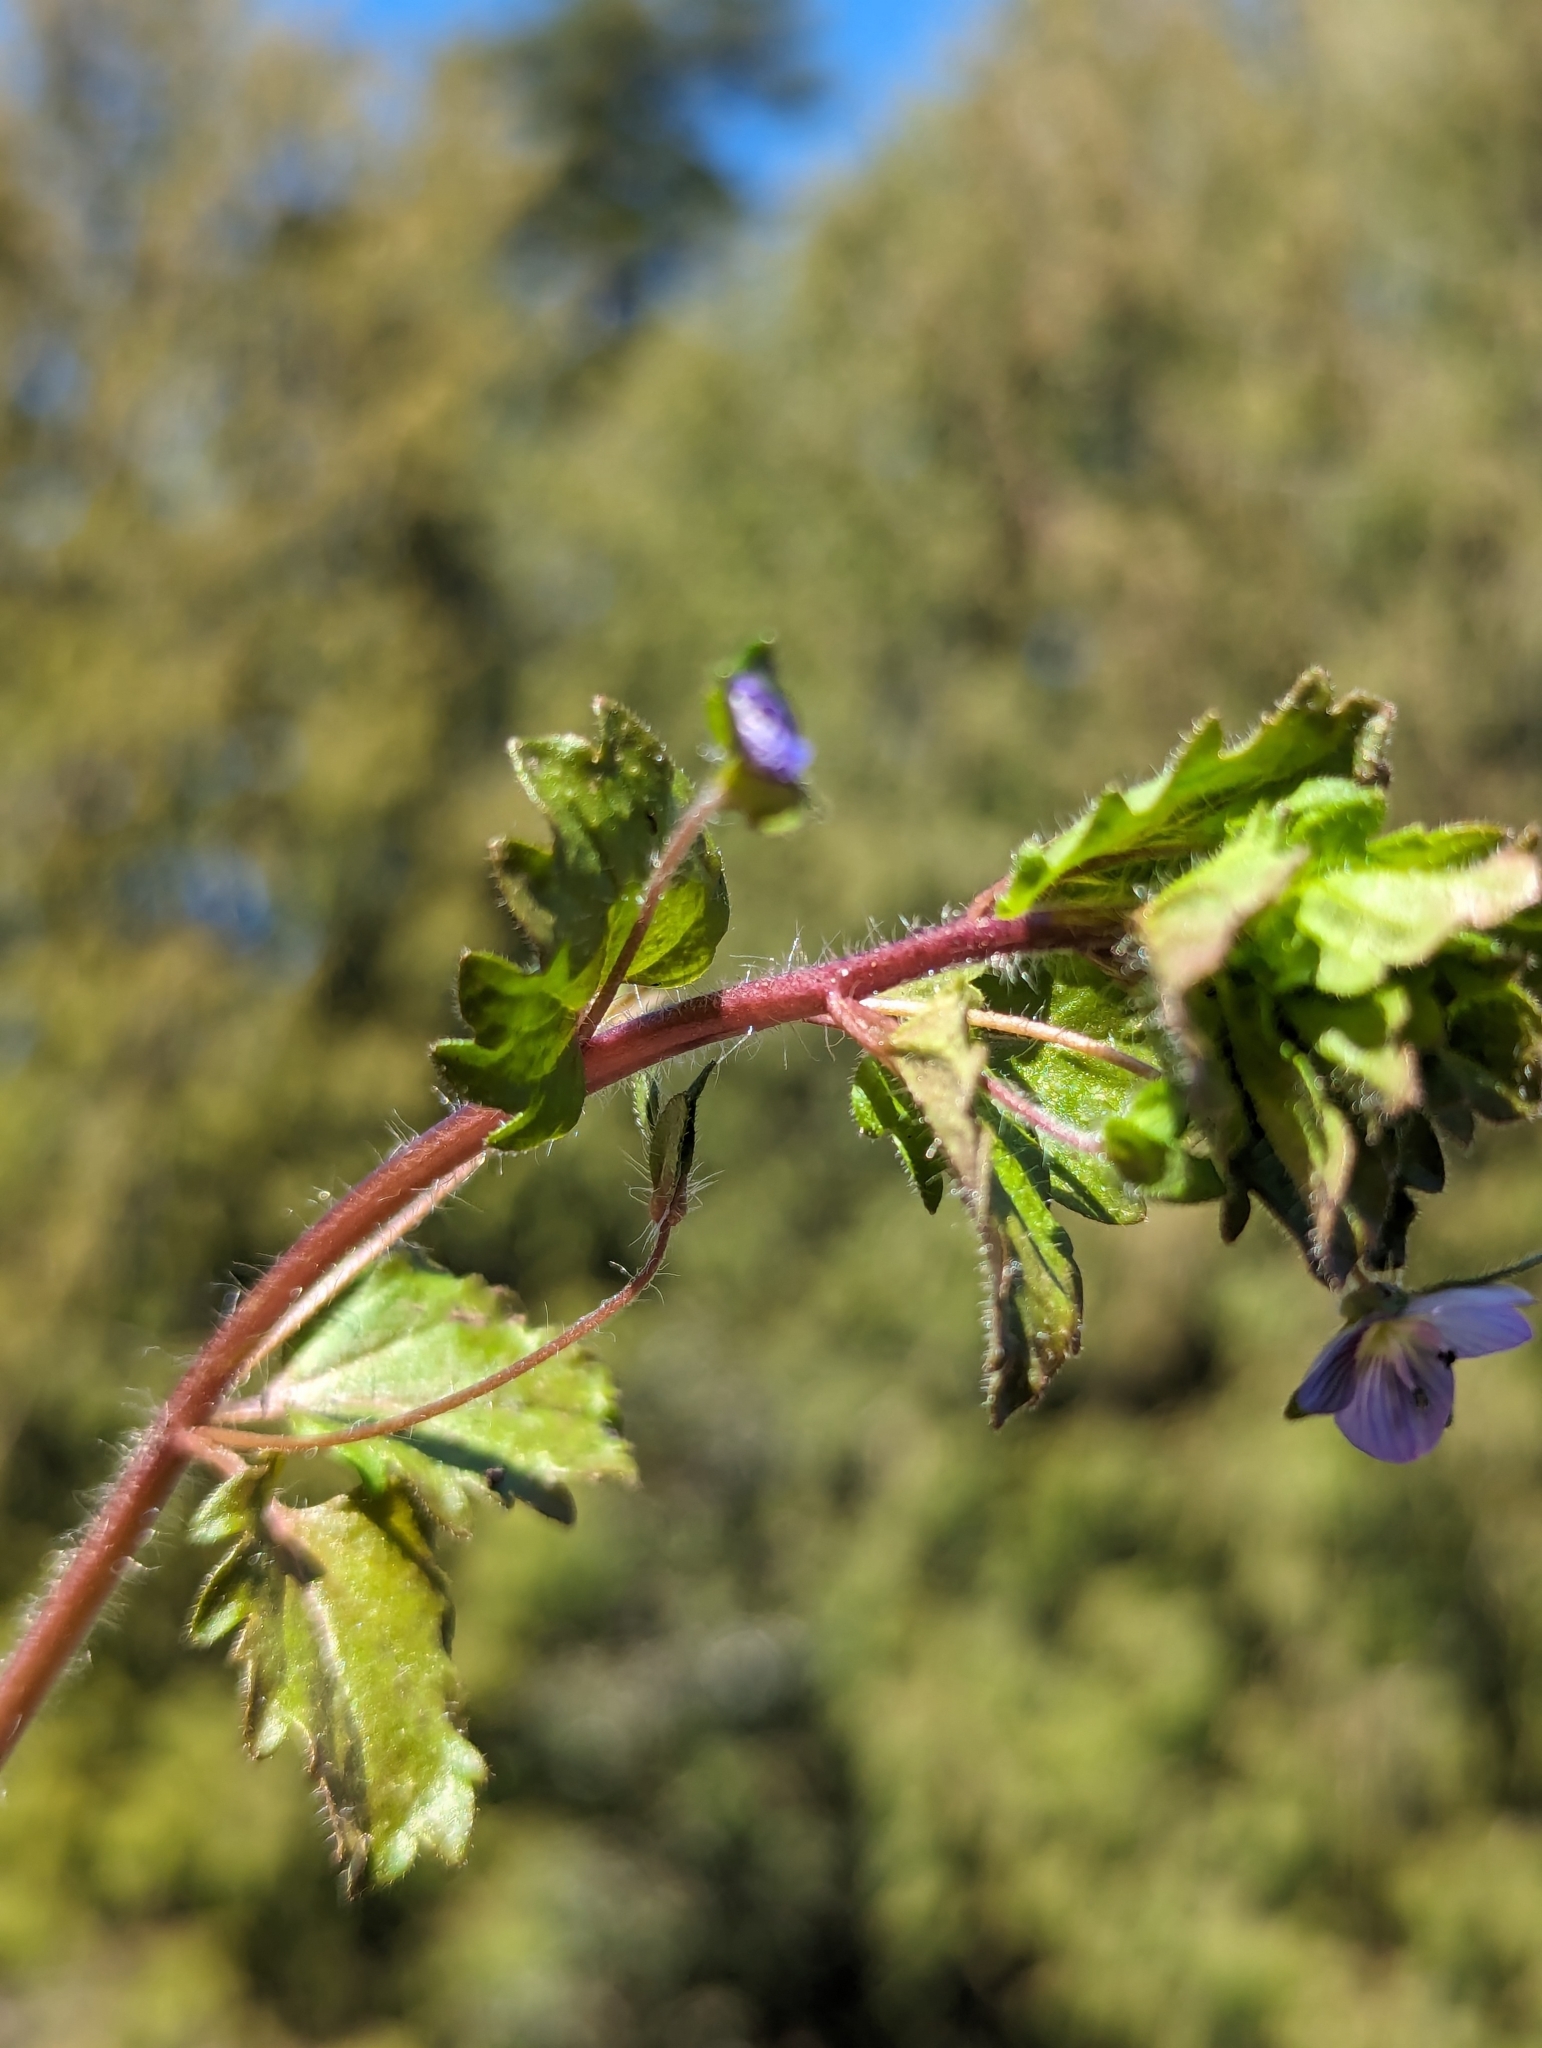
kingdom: Plantae
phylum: Tracheophyta
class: Magnoliopsida
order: Lamiales
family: Plantaginaceae
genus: Veronica
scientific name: Veronica persica
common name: Common field-speedwell
